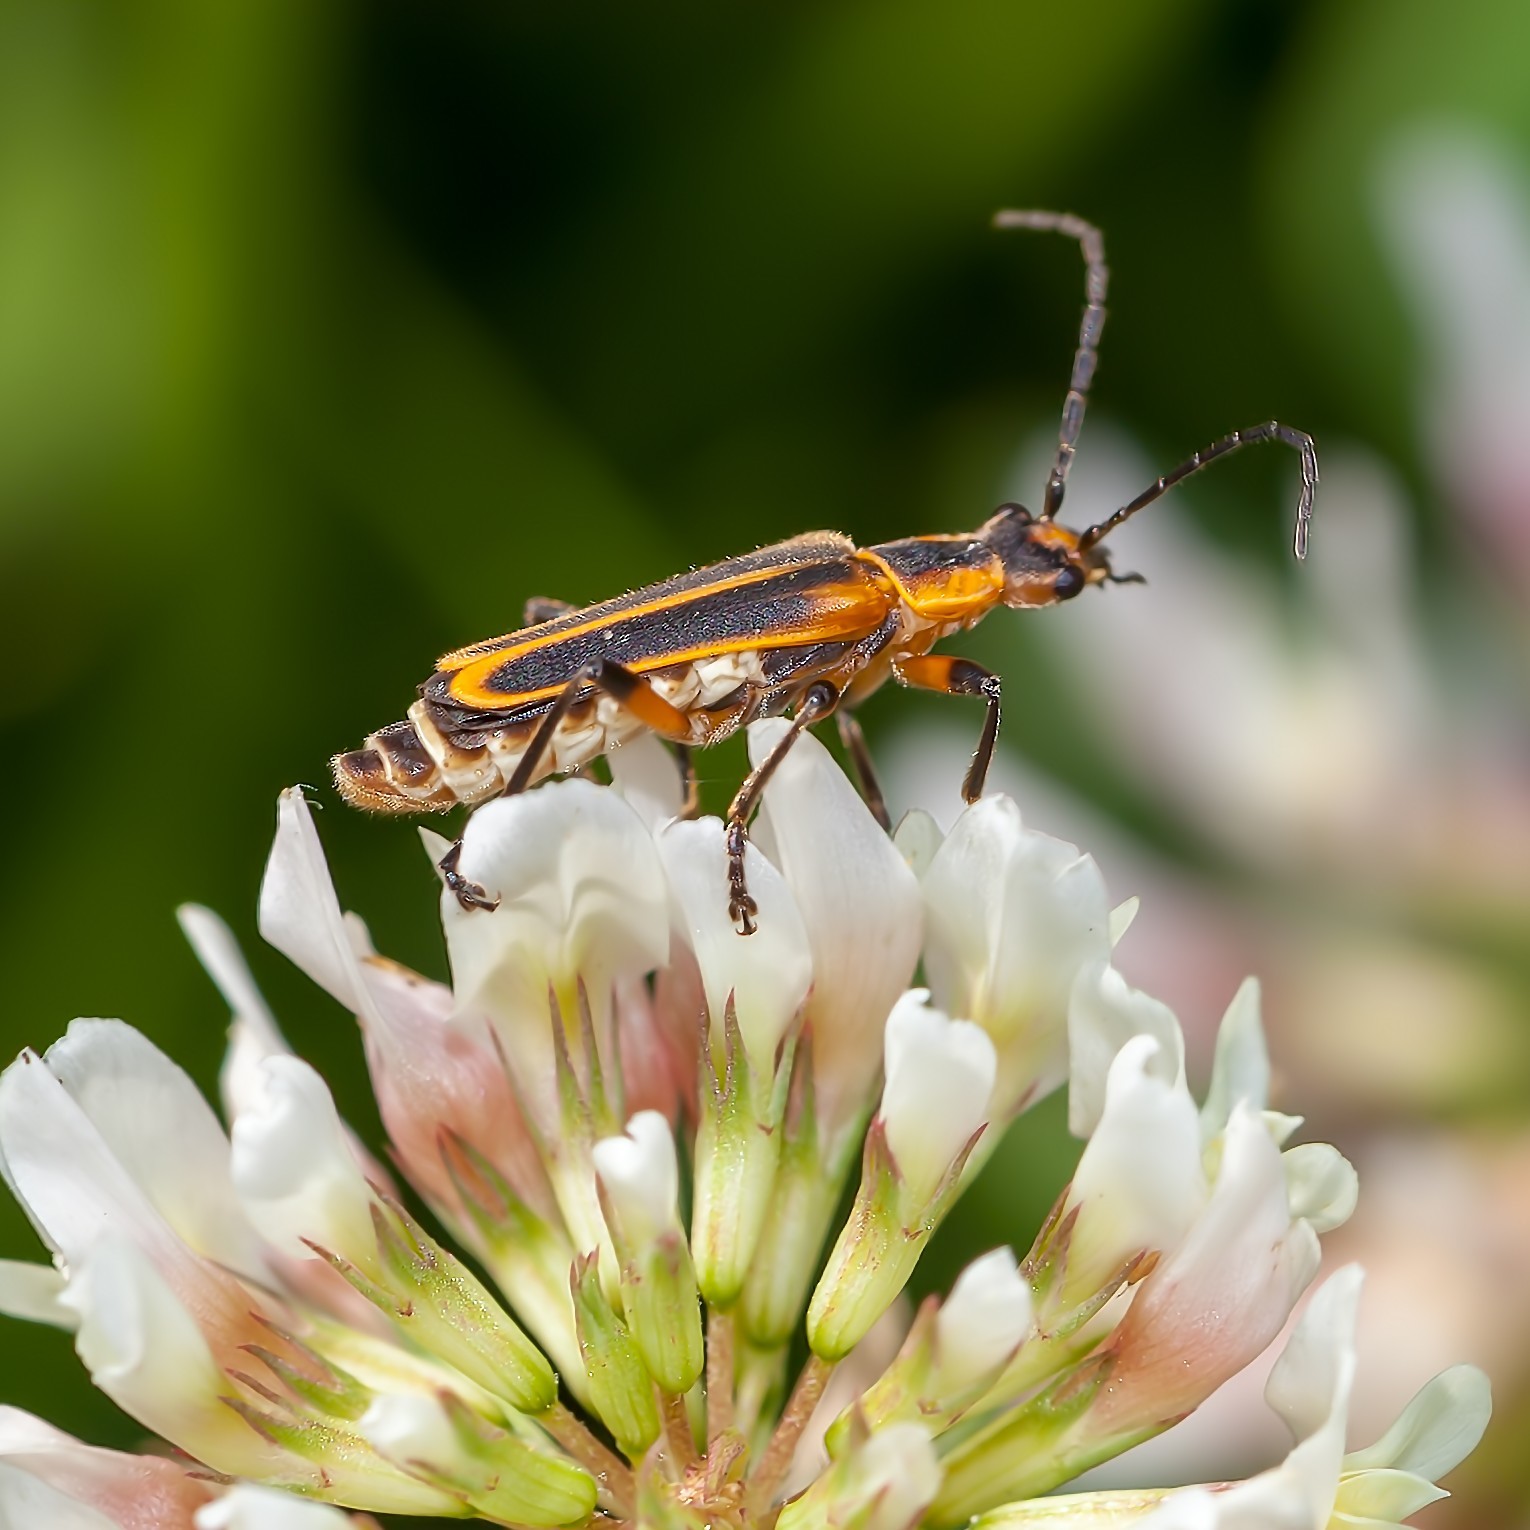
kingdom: Animalia
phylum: Arthropoda
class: Insecta
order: Coleoptera
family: Cantharidae
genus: Chauliognathus
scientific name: Chauliognathus marginatus
